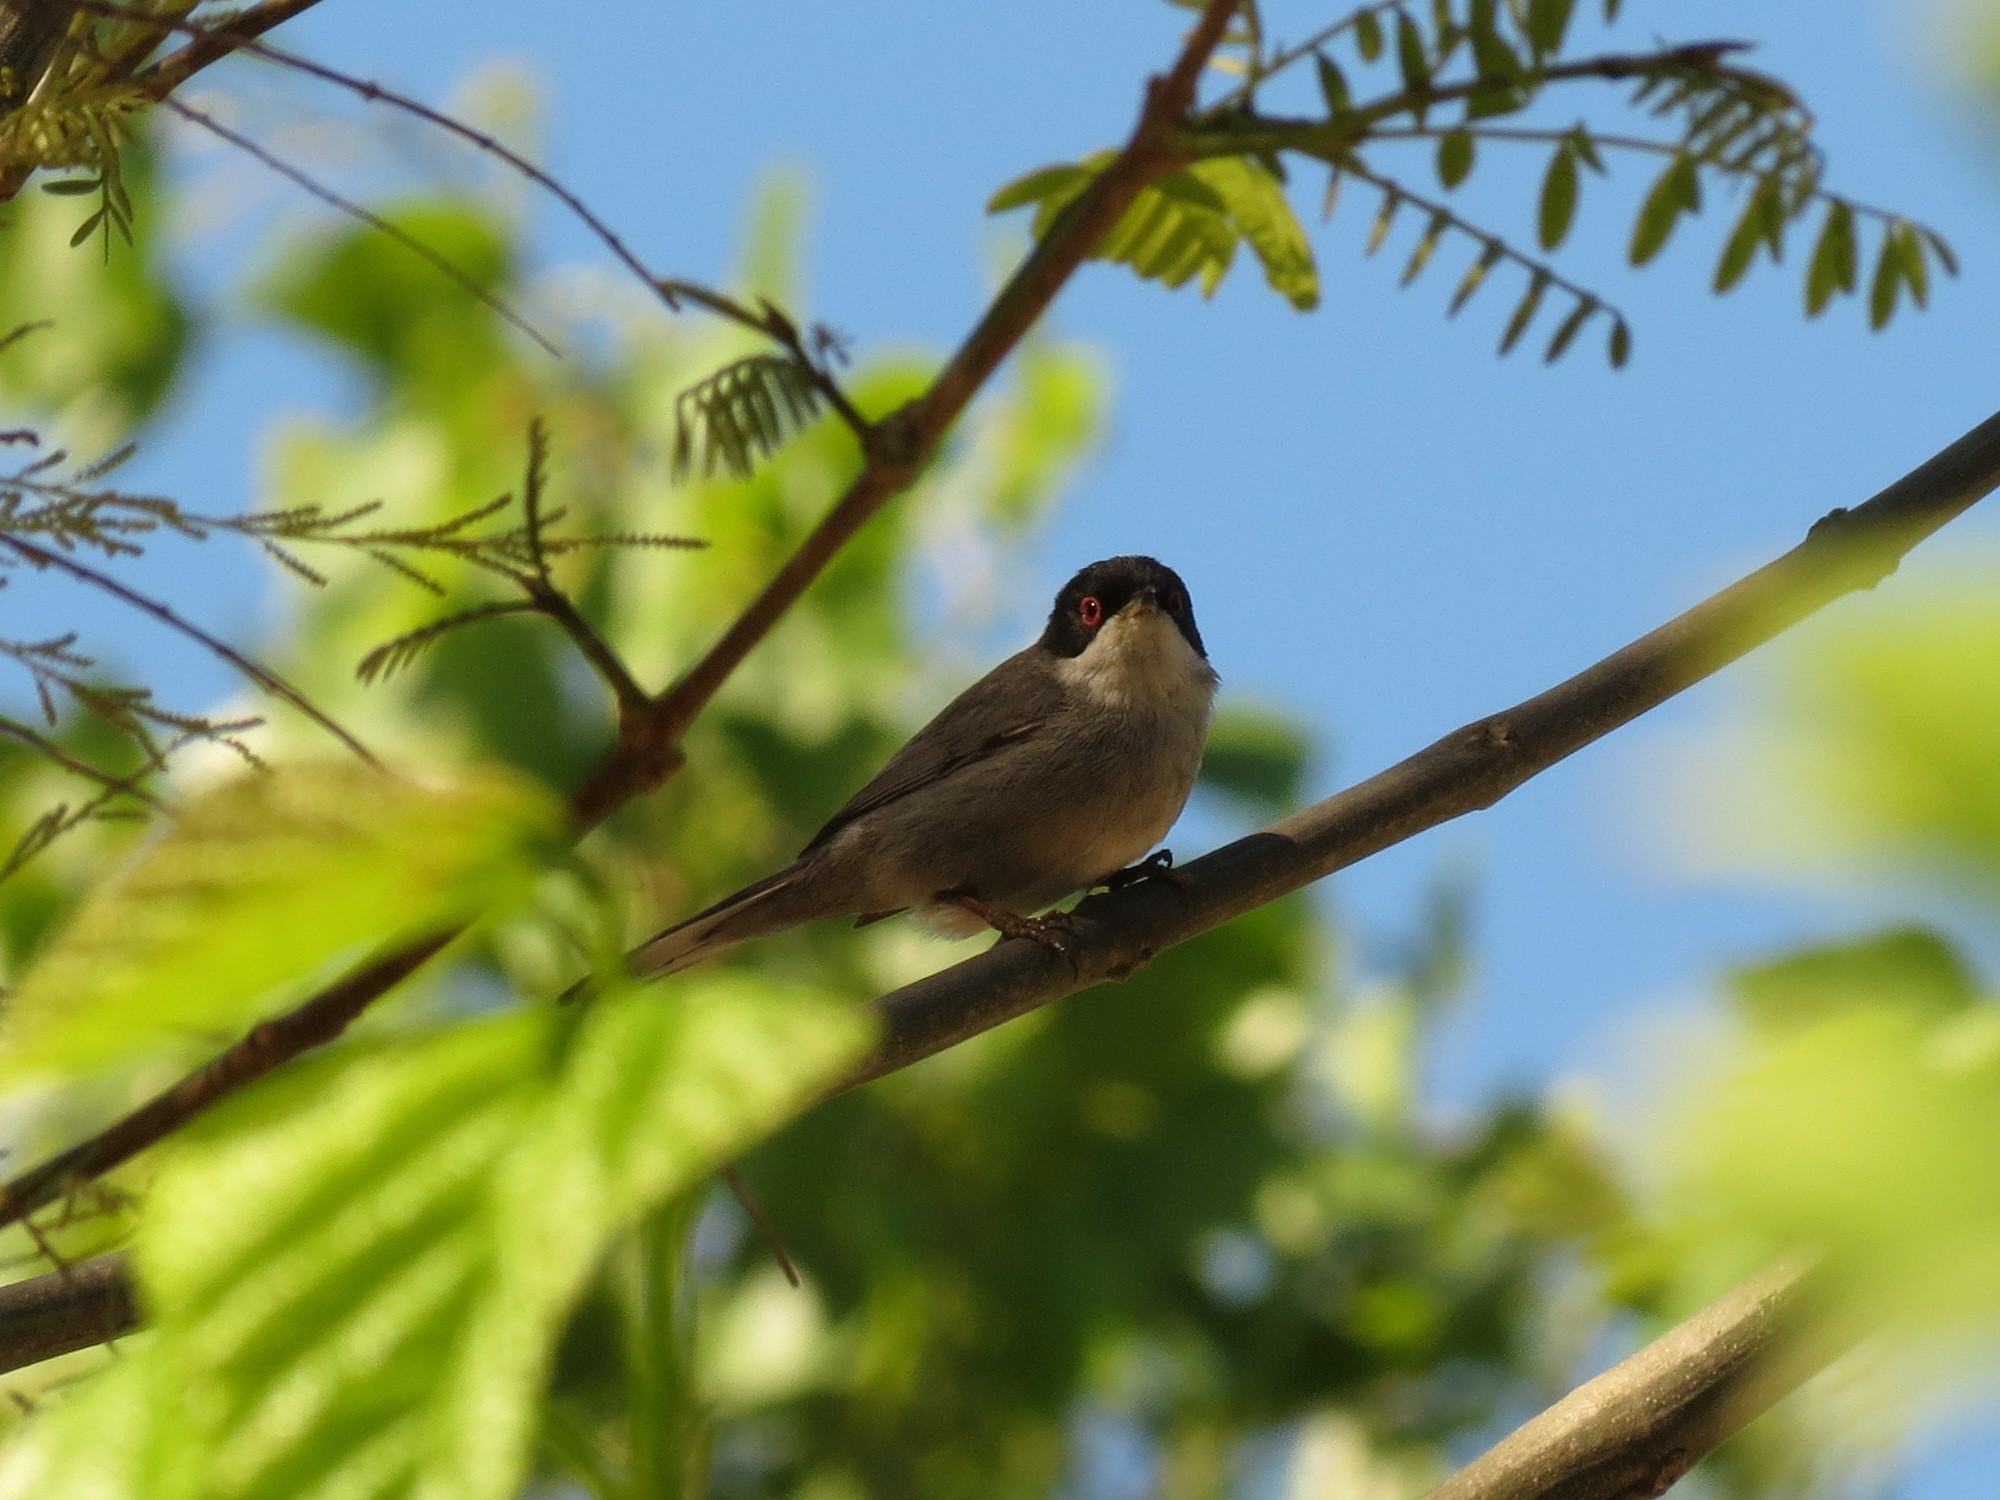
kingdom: Animalia
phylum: Chordata
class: Aves
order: Passeriformes
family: Sylviidae
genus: Curruca
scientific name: Curruca melanocephala
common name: Sardinian warbler
